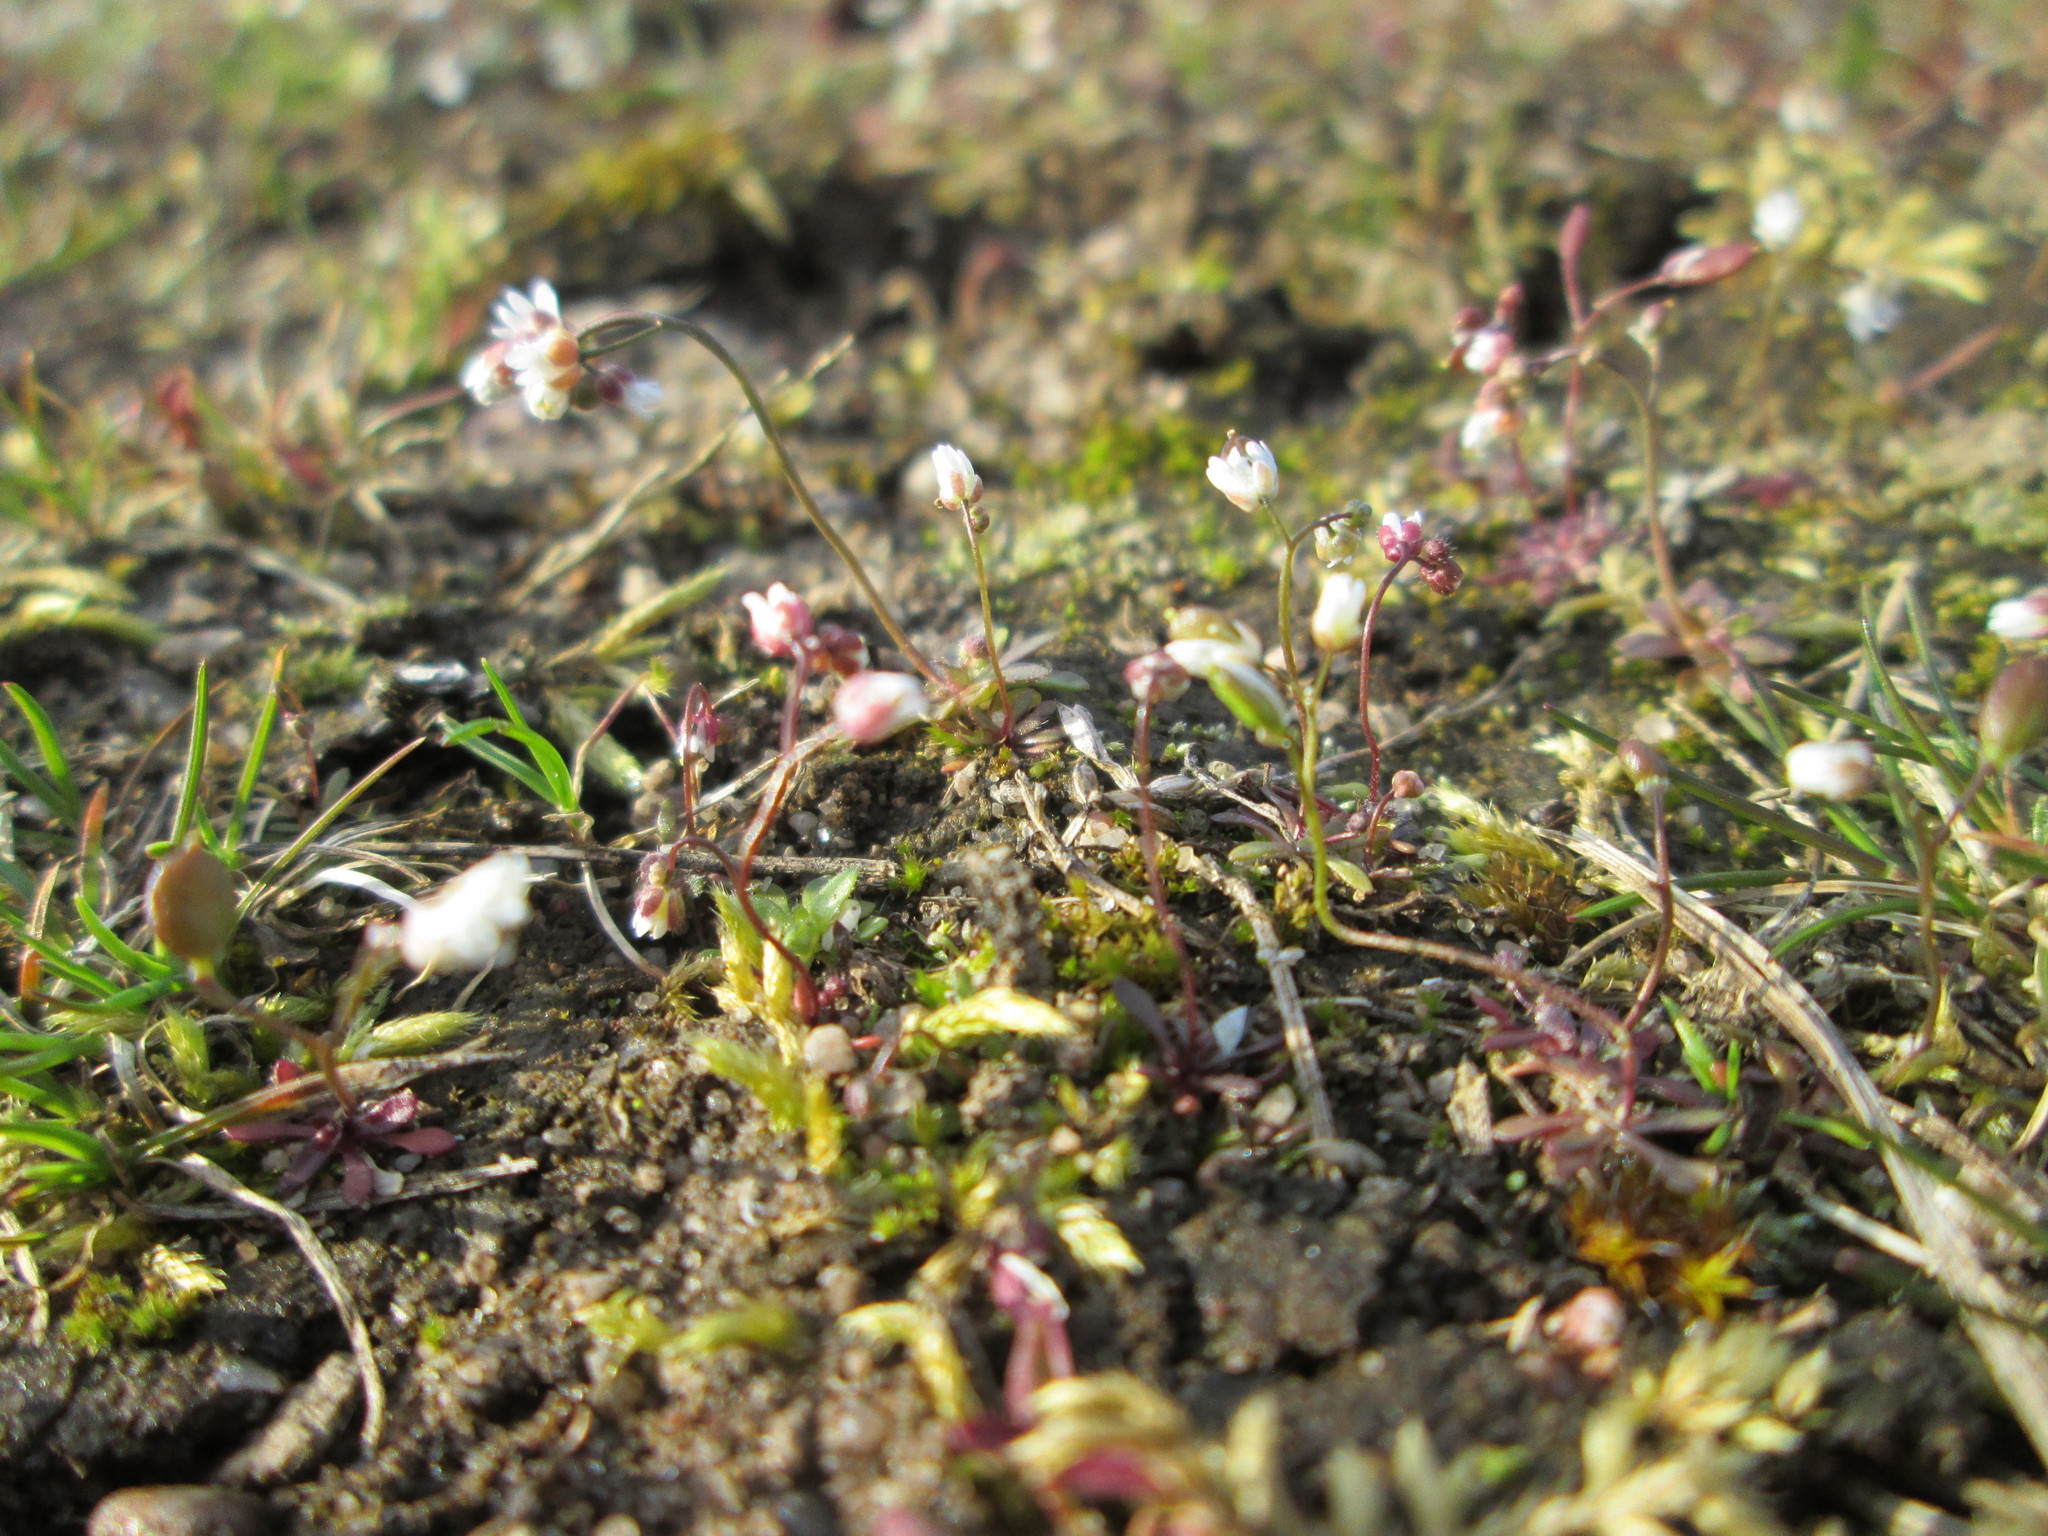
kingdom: Plantae
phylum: Tracheophyta
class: Magnoliopsida
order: Brassicales
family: Brassicaceae
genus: Draba
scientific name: Draba verna
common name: Spring draba
